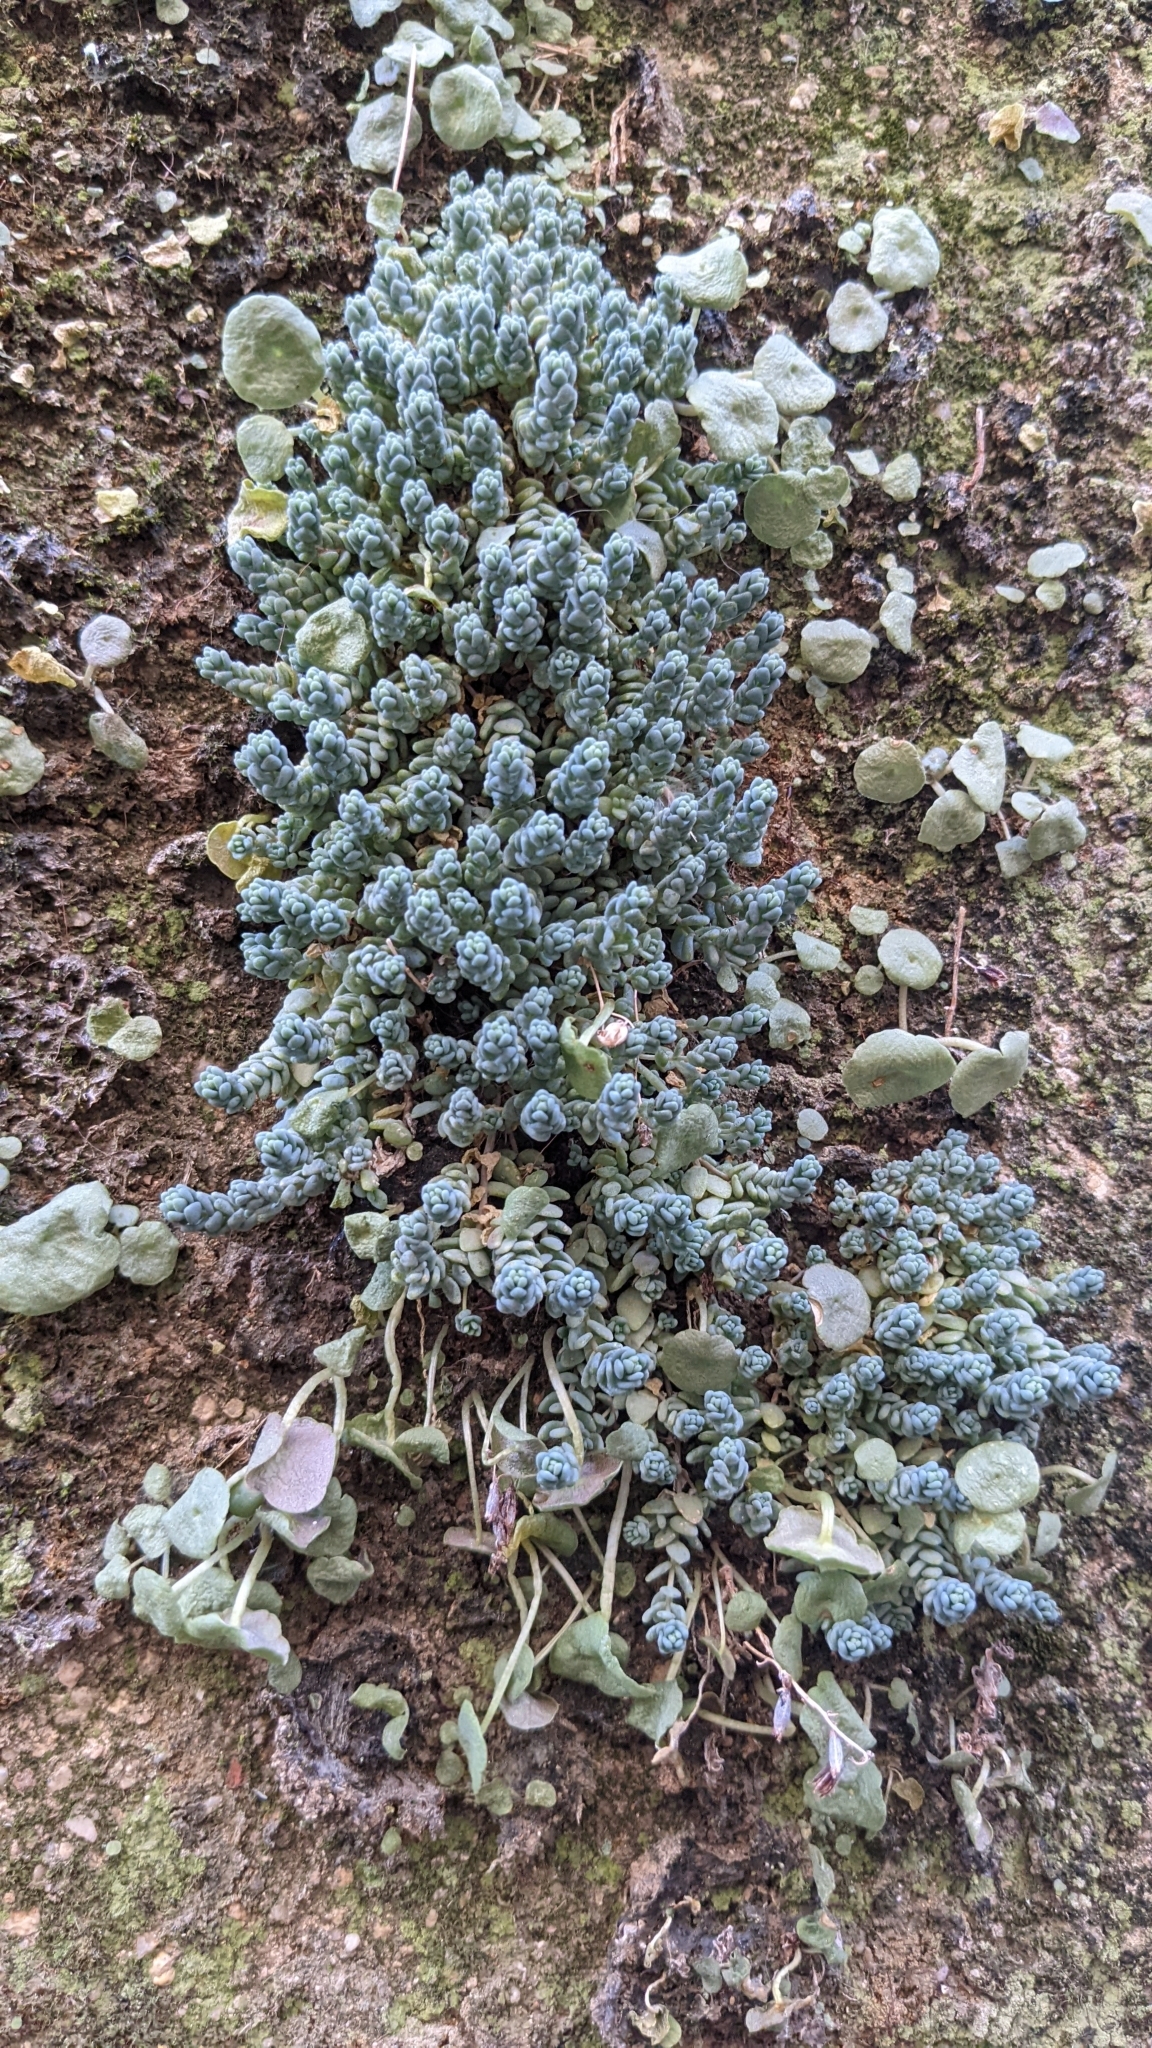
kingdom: Plantae
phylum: Tracheophyta
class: Magnoliopsida
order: Saxifragales
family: Crassulaceae
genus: Sedum
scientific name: Sedum dasyphyllum
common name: Thick-leaf stonecrop
